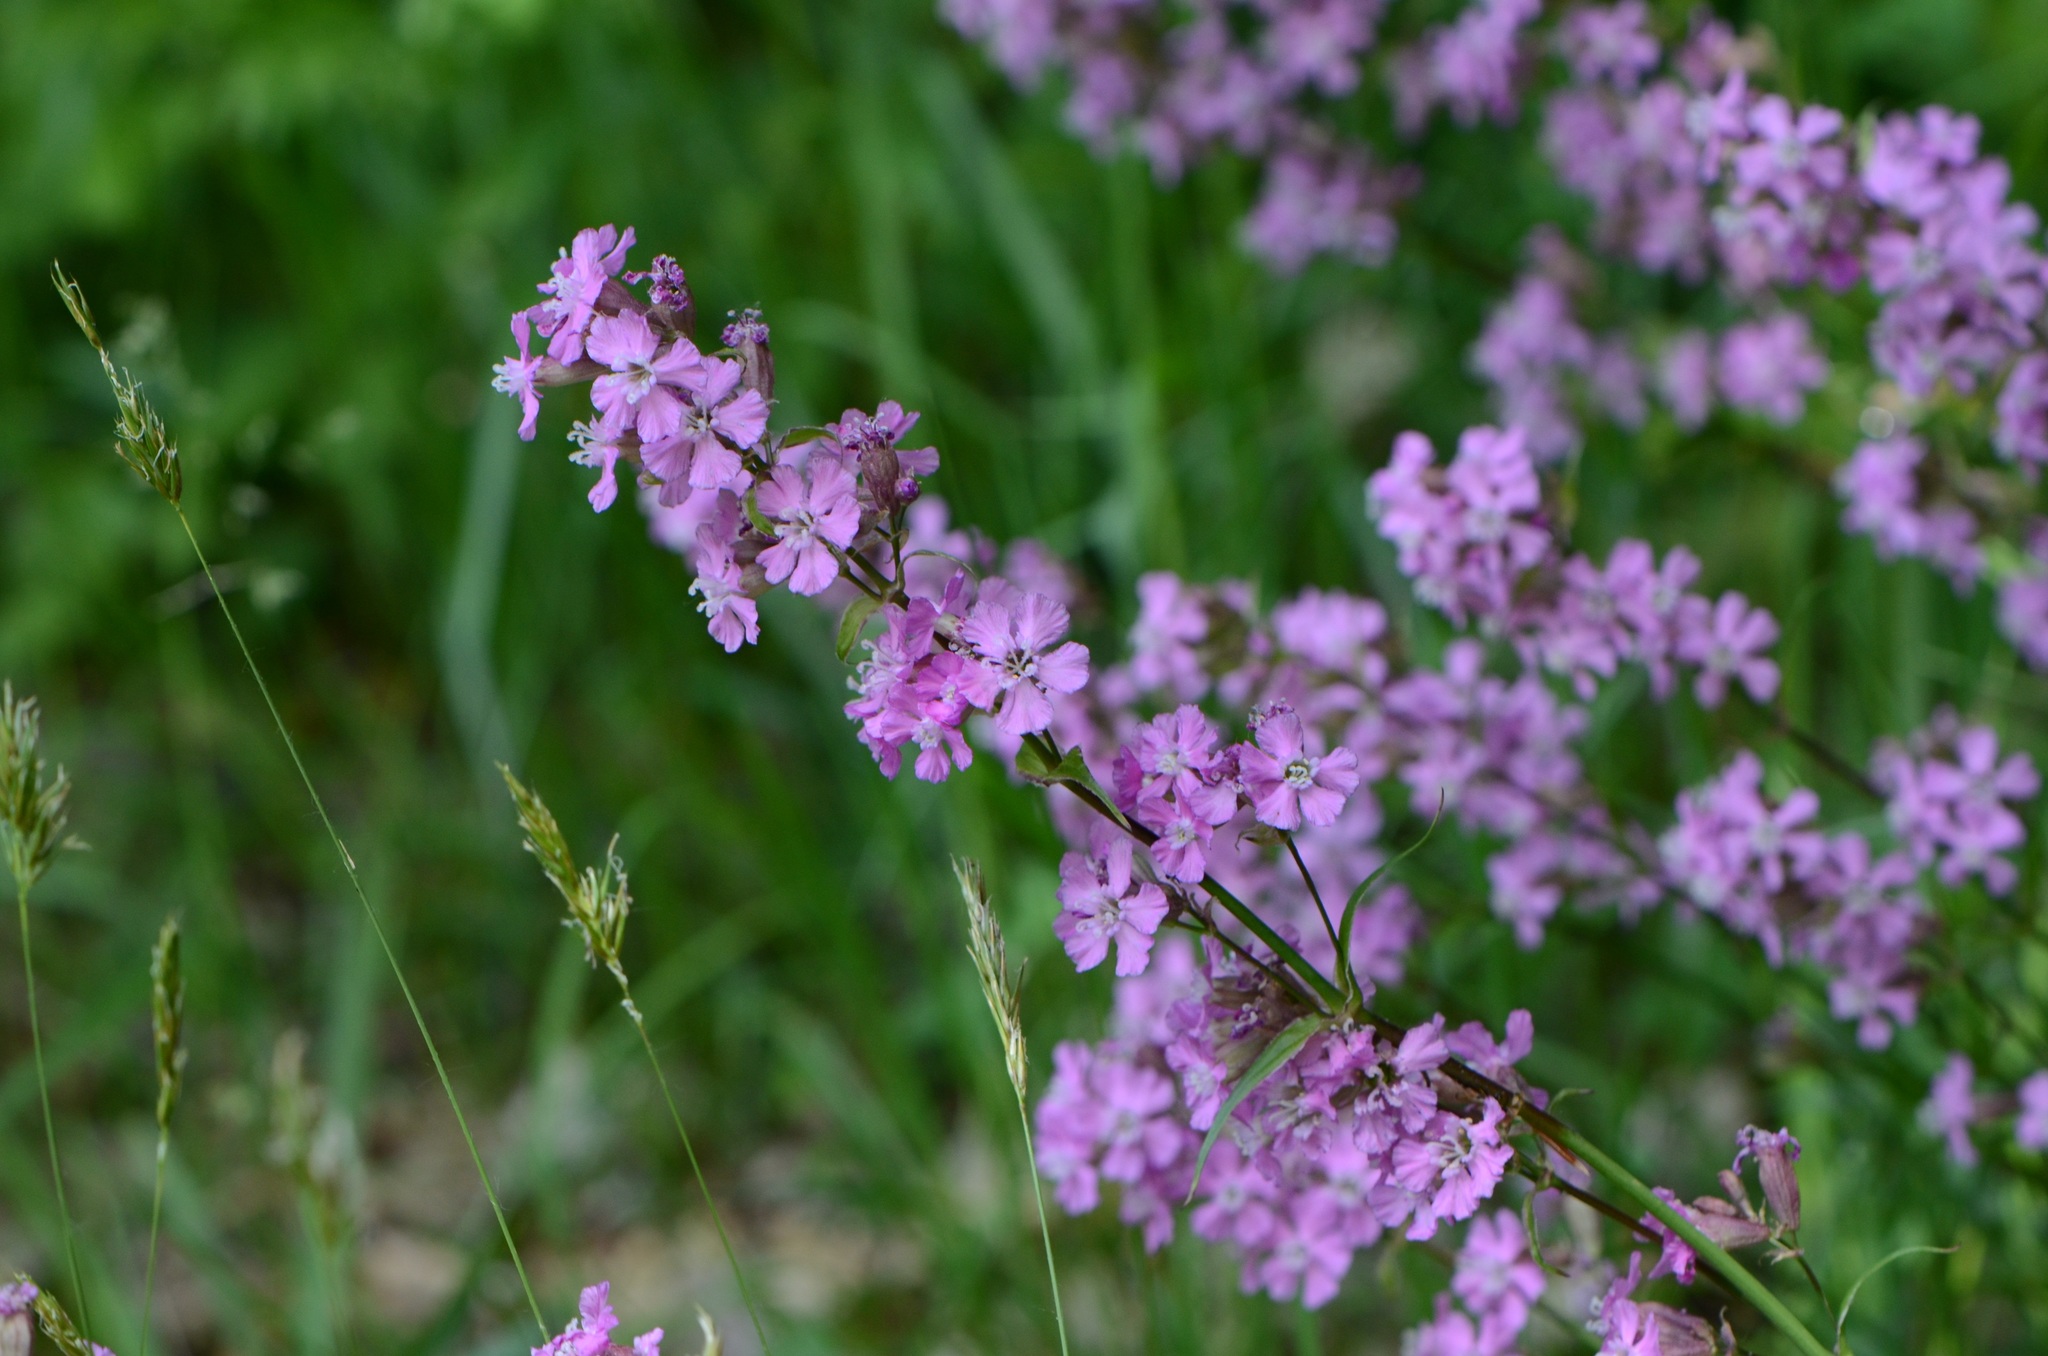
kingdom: Plantae
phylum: Tracheophyta
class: Magnoliopsida
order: Caryophyllales
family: Caryophyllaceae
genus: Viscaria
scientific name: Viscaria vulgaris
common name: Clammy campion
